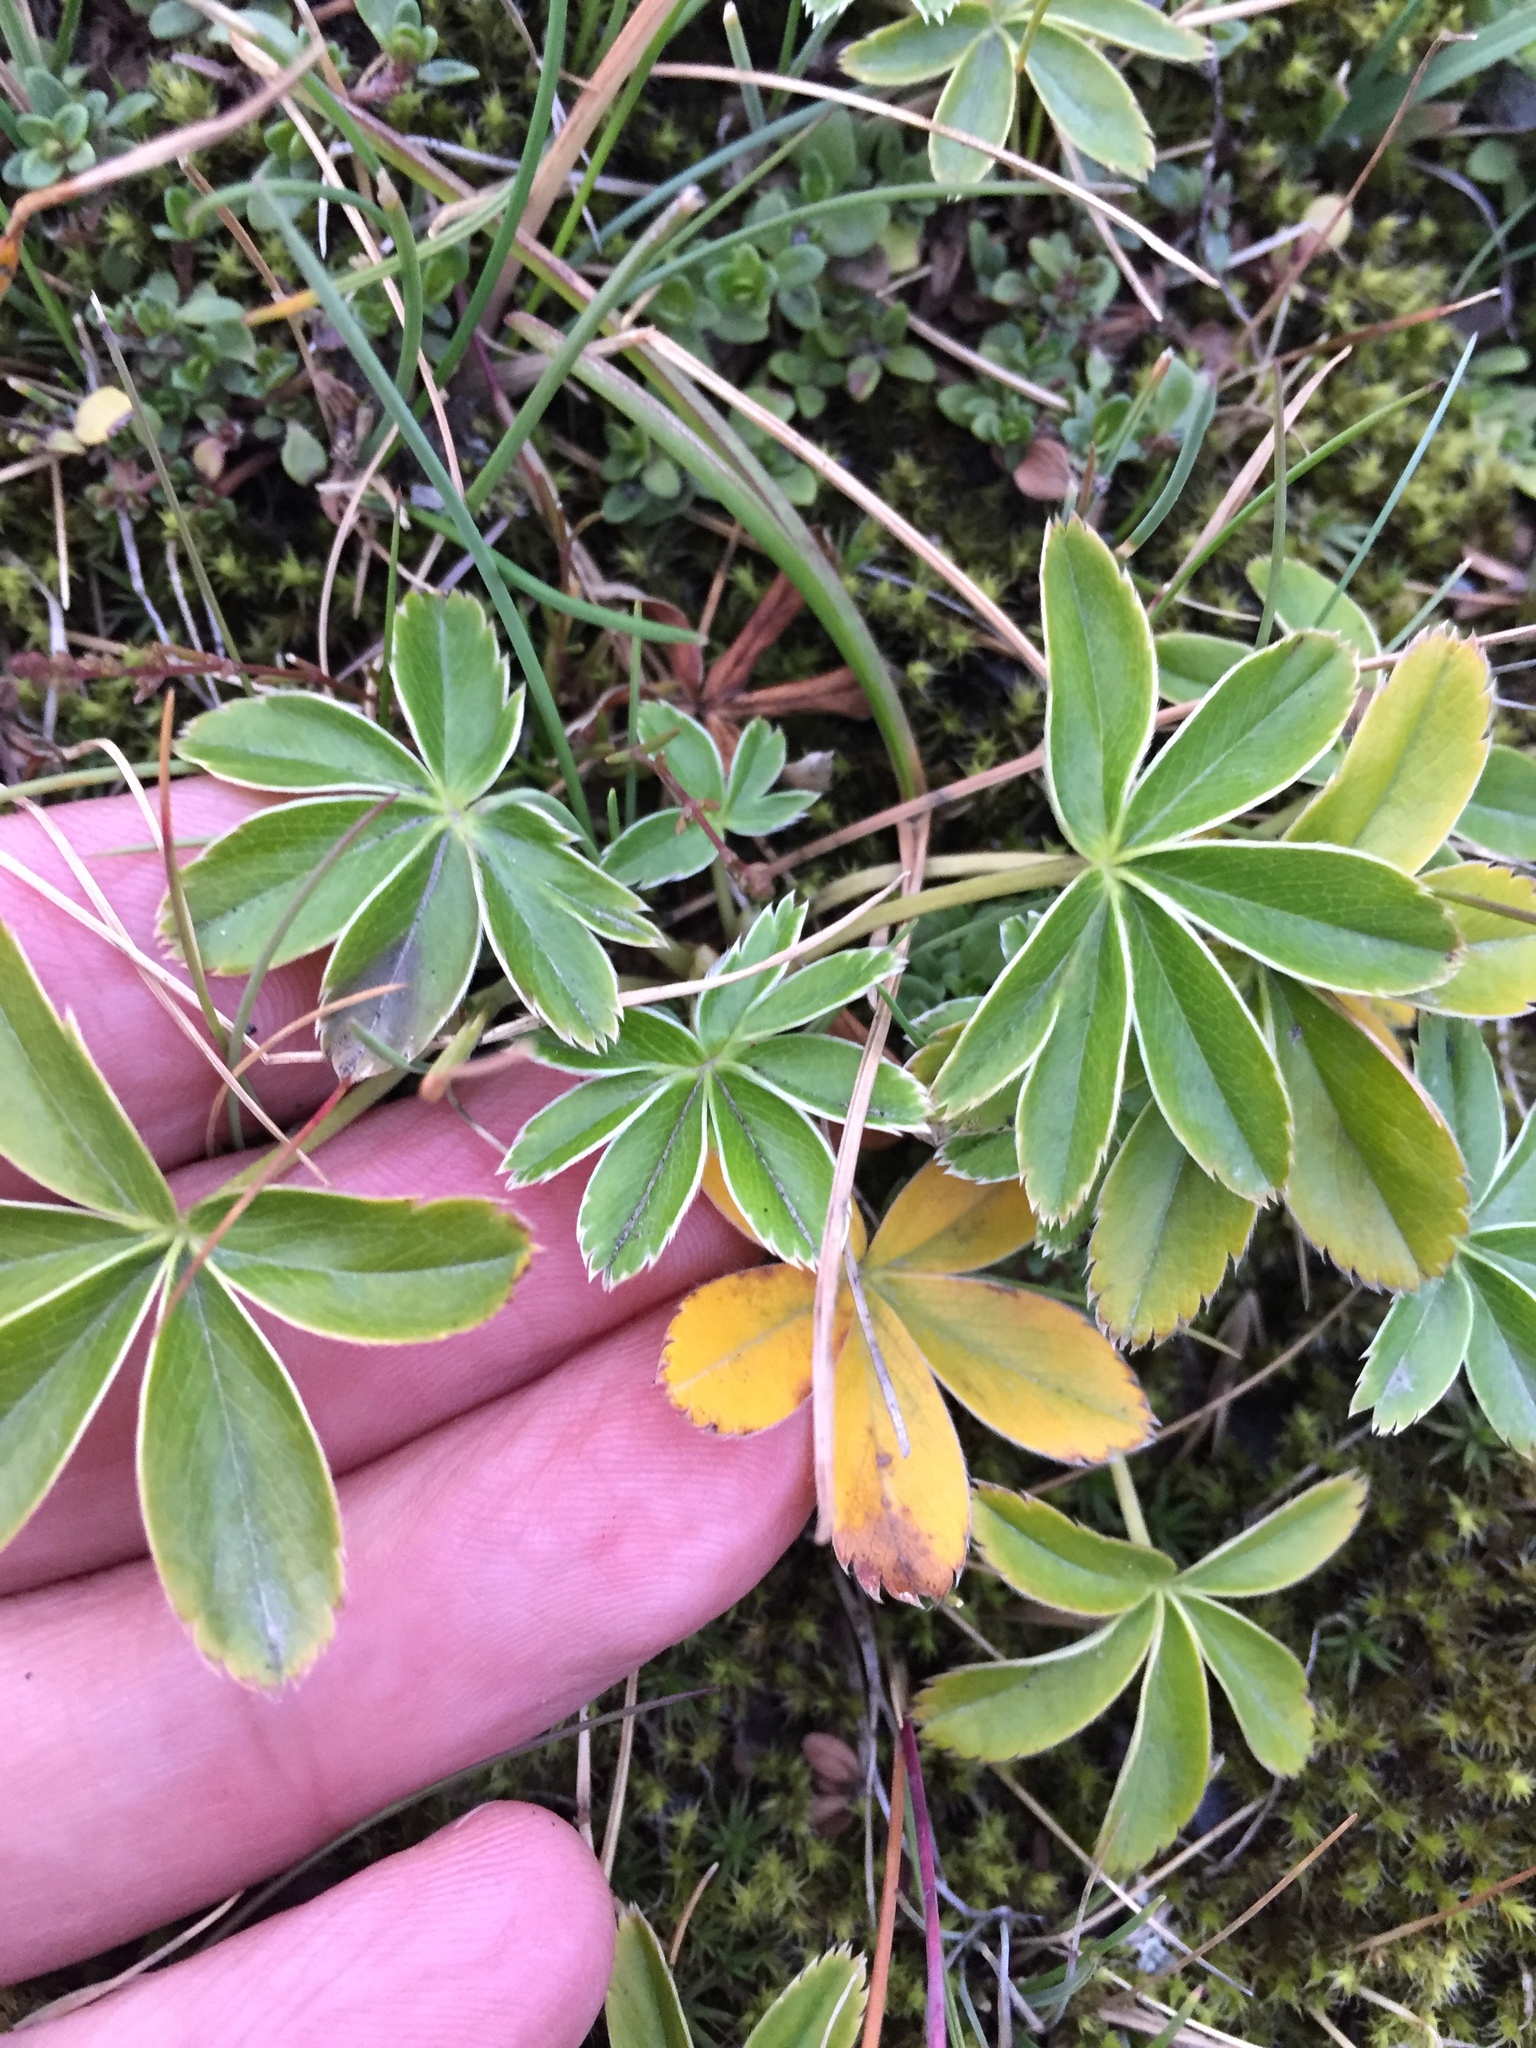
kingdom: Plantae
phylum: Tracheophyta
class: Magnoliopsida
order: Rosales
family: Rosaceae
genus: Alchemilla
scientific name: Alchemilla alpina
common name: Alpine lady's-mantle
